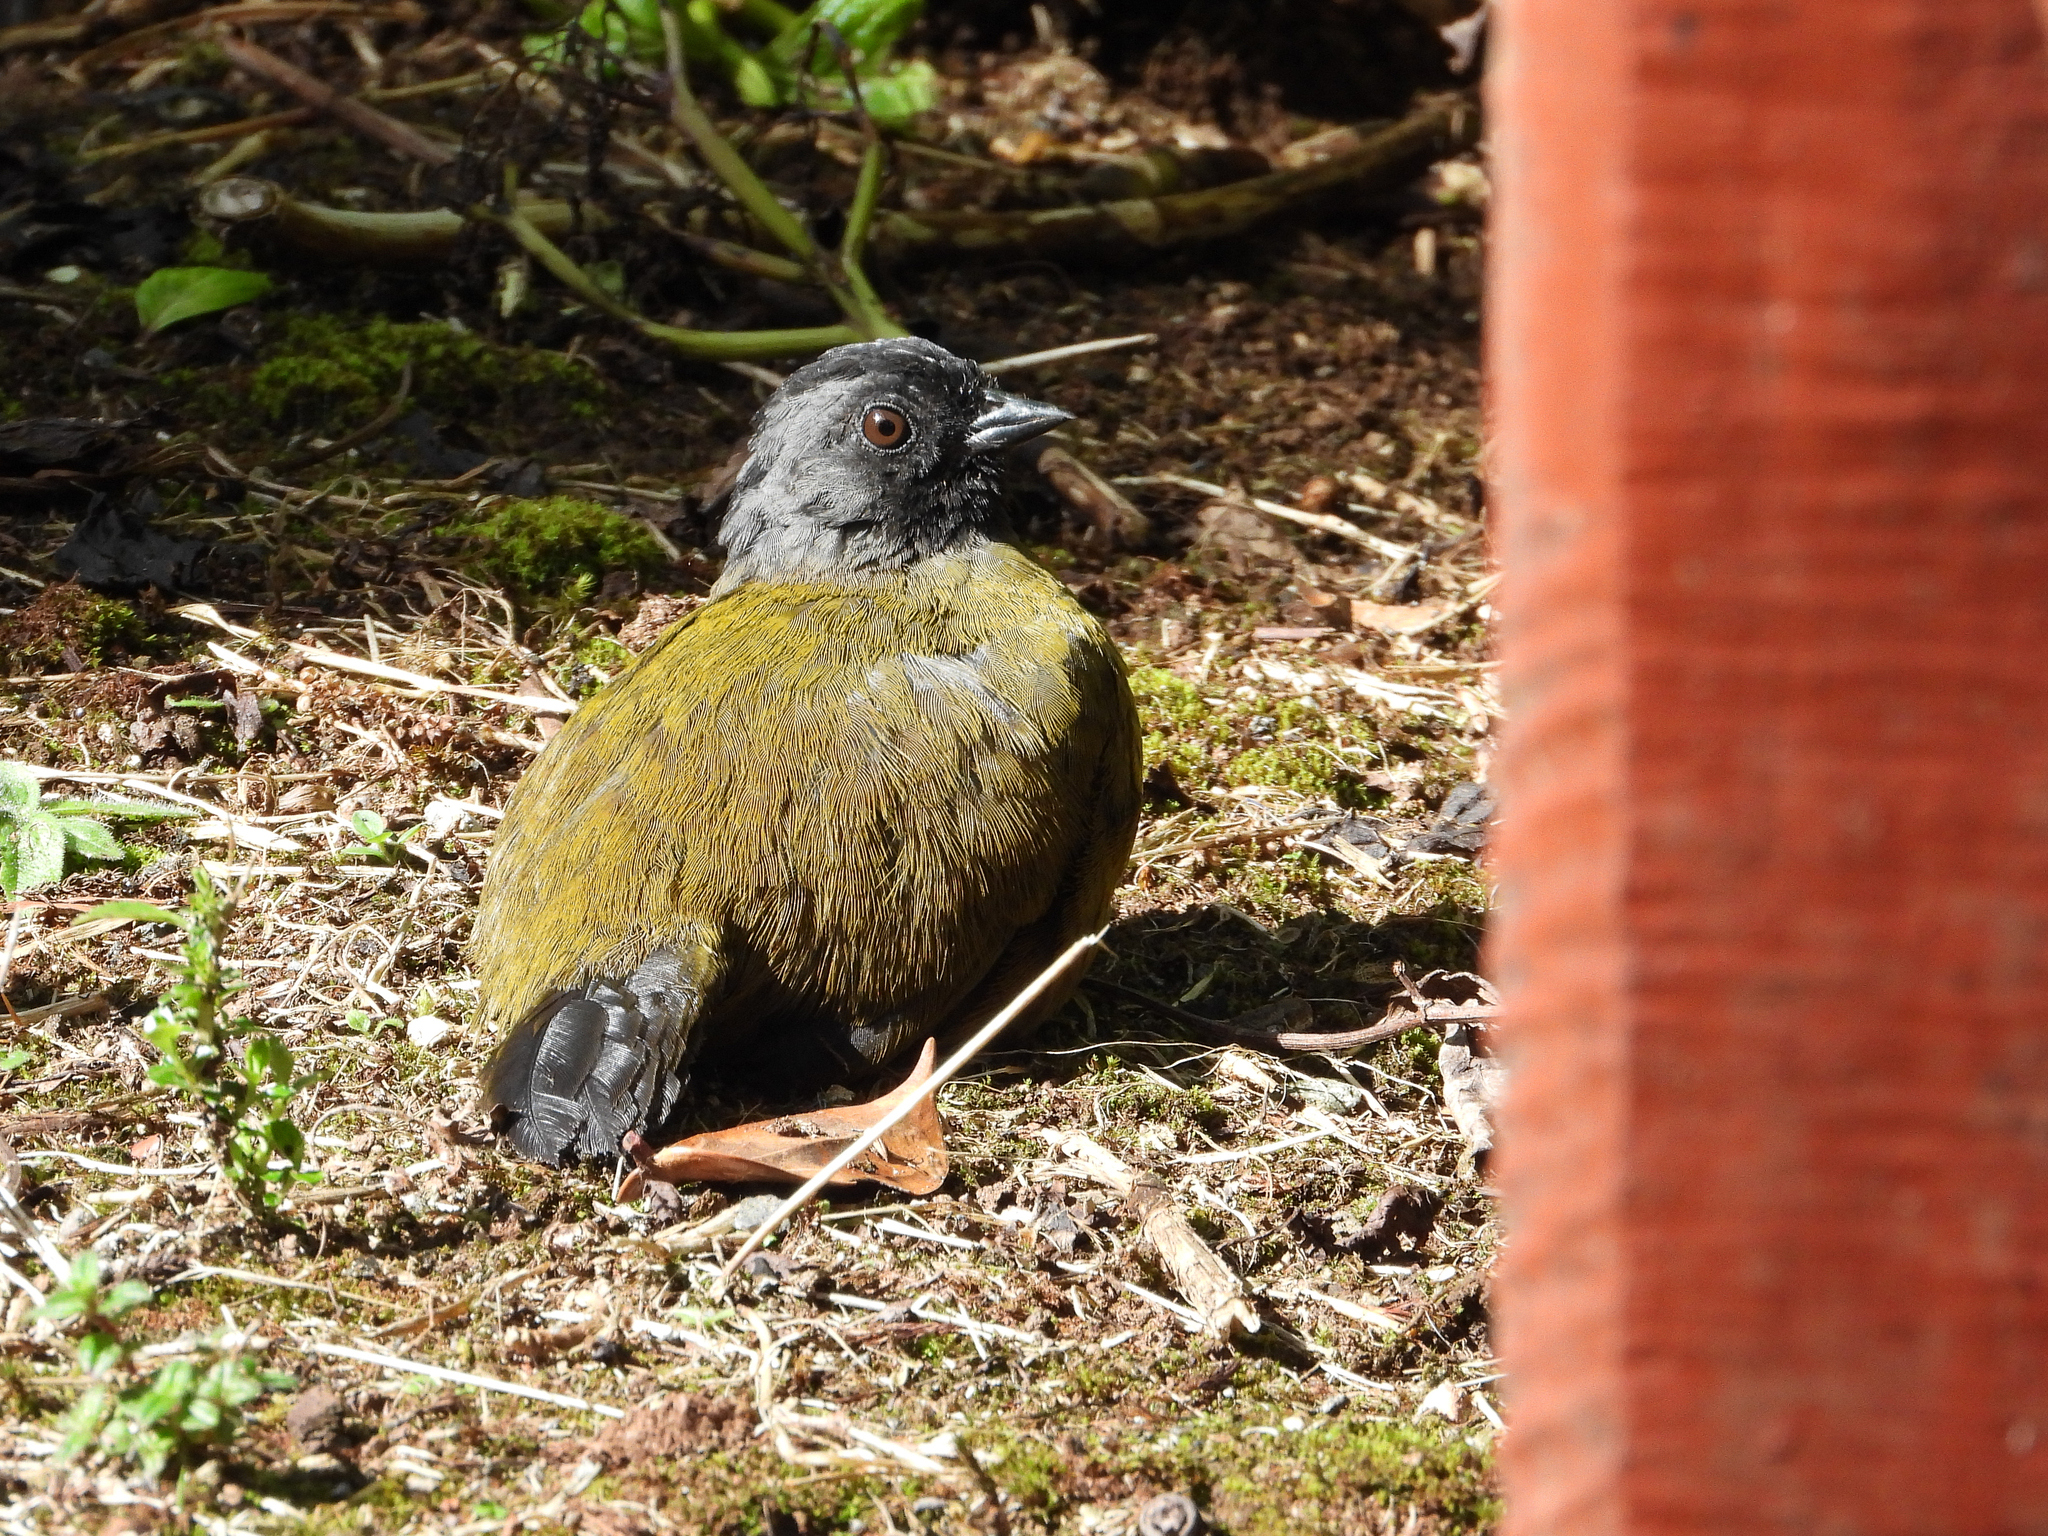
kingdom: Animalia
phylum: Chordata
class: Aves
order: Passeriformes
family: Passerellidae
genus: Pezopetes
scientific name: Pezopetes capitalis
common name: Large-footed finch
